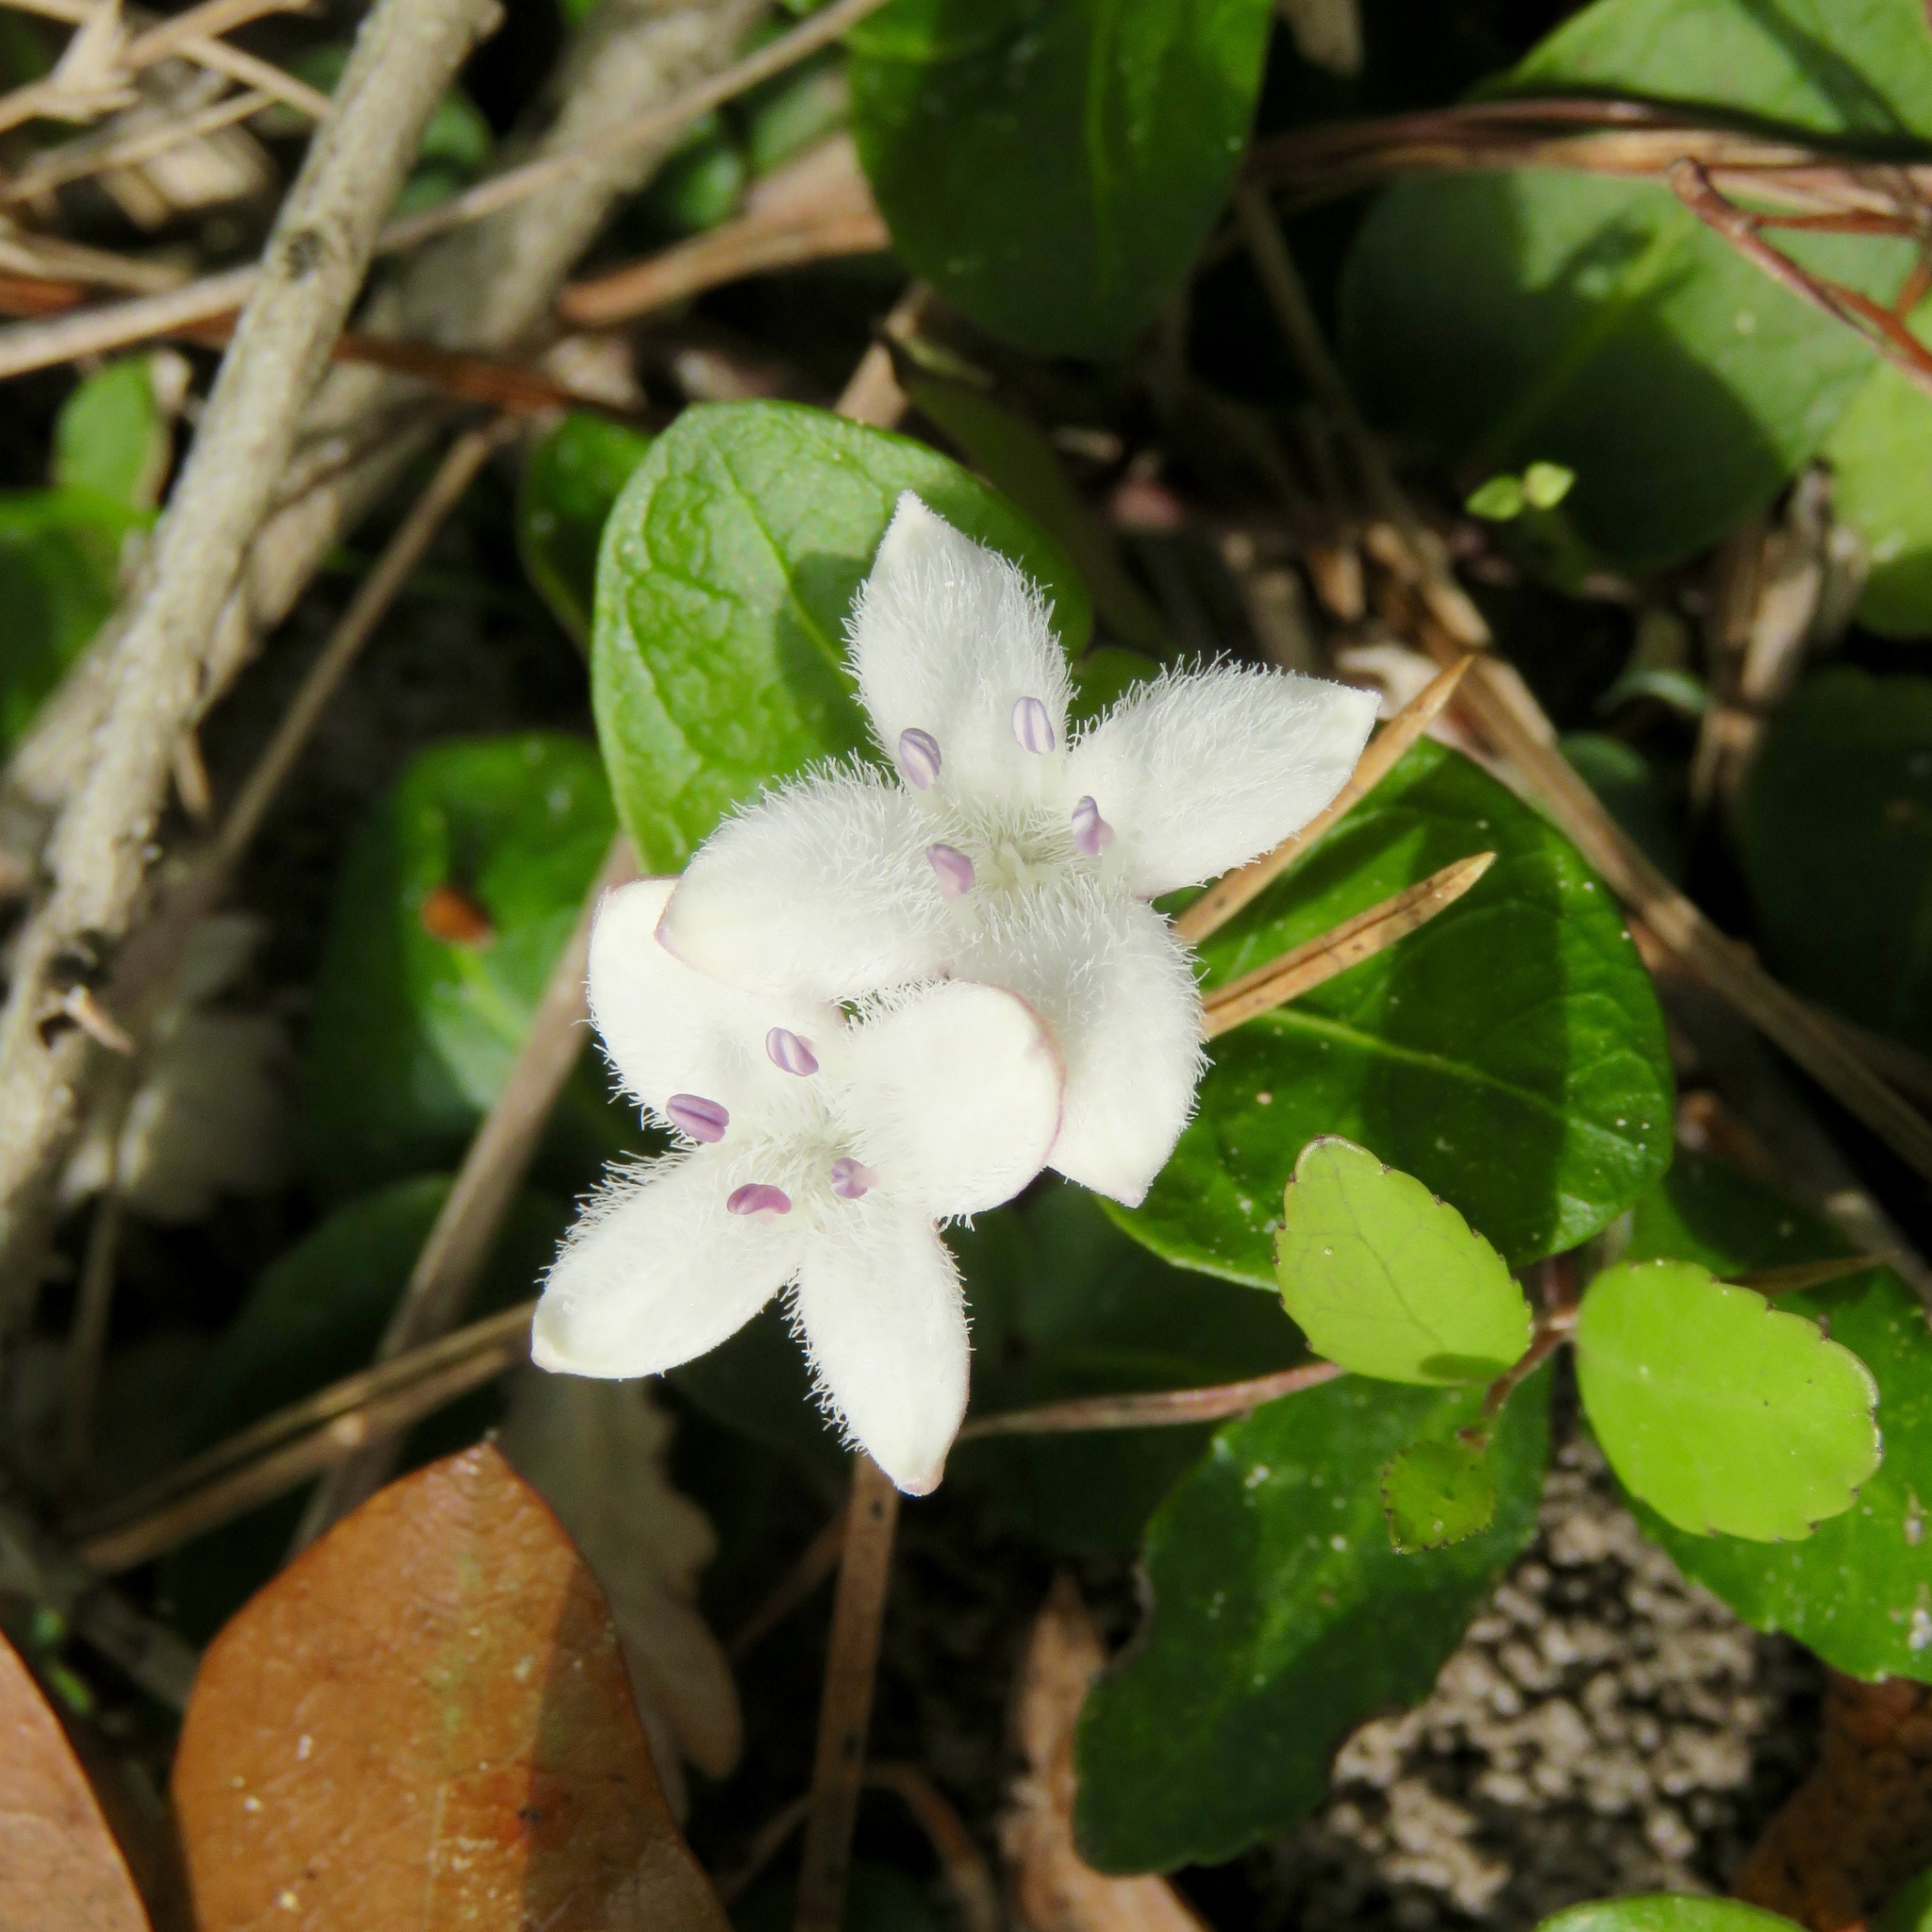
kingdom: Plantae
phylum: Tracheophyta
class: Magnoliopsida
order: Gentianales
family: Rubiaceae
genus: Mitchella
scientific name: Mitchella repens
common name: Partridge-berry
